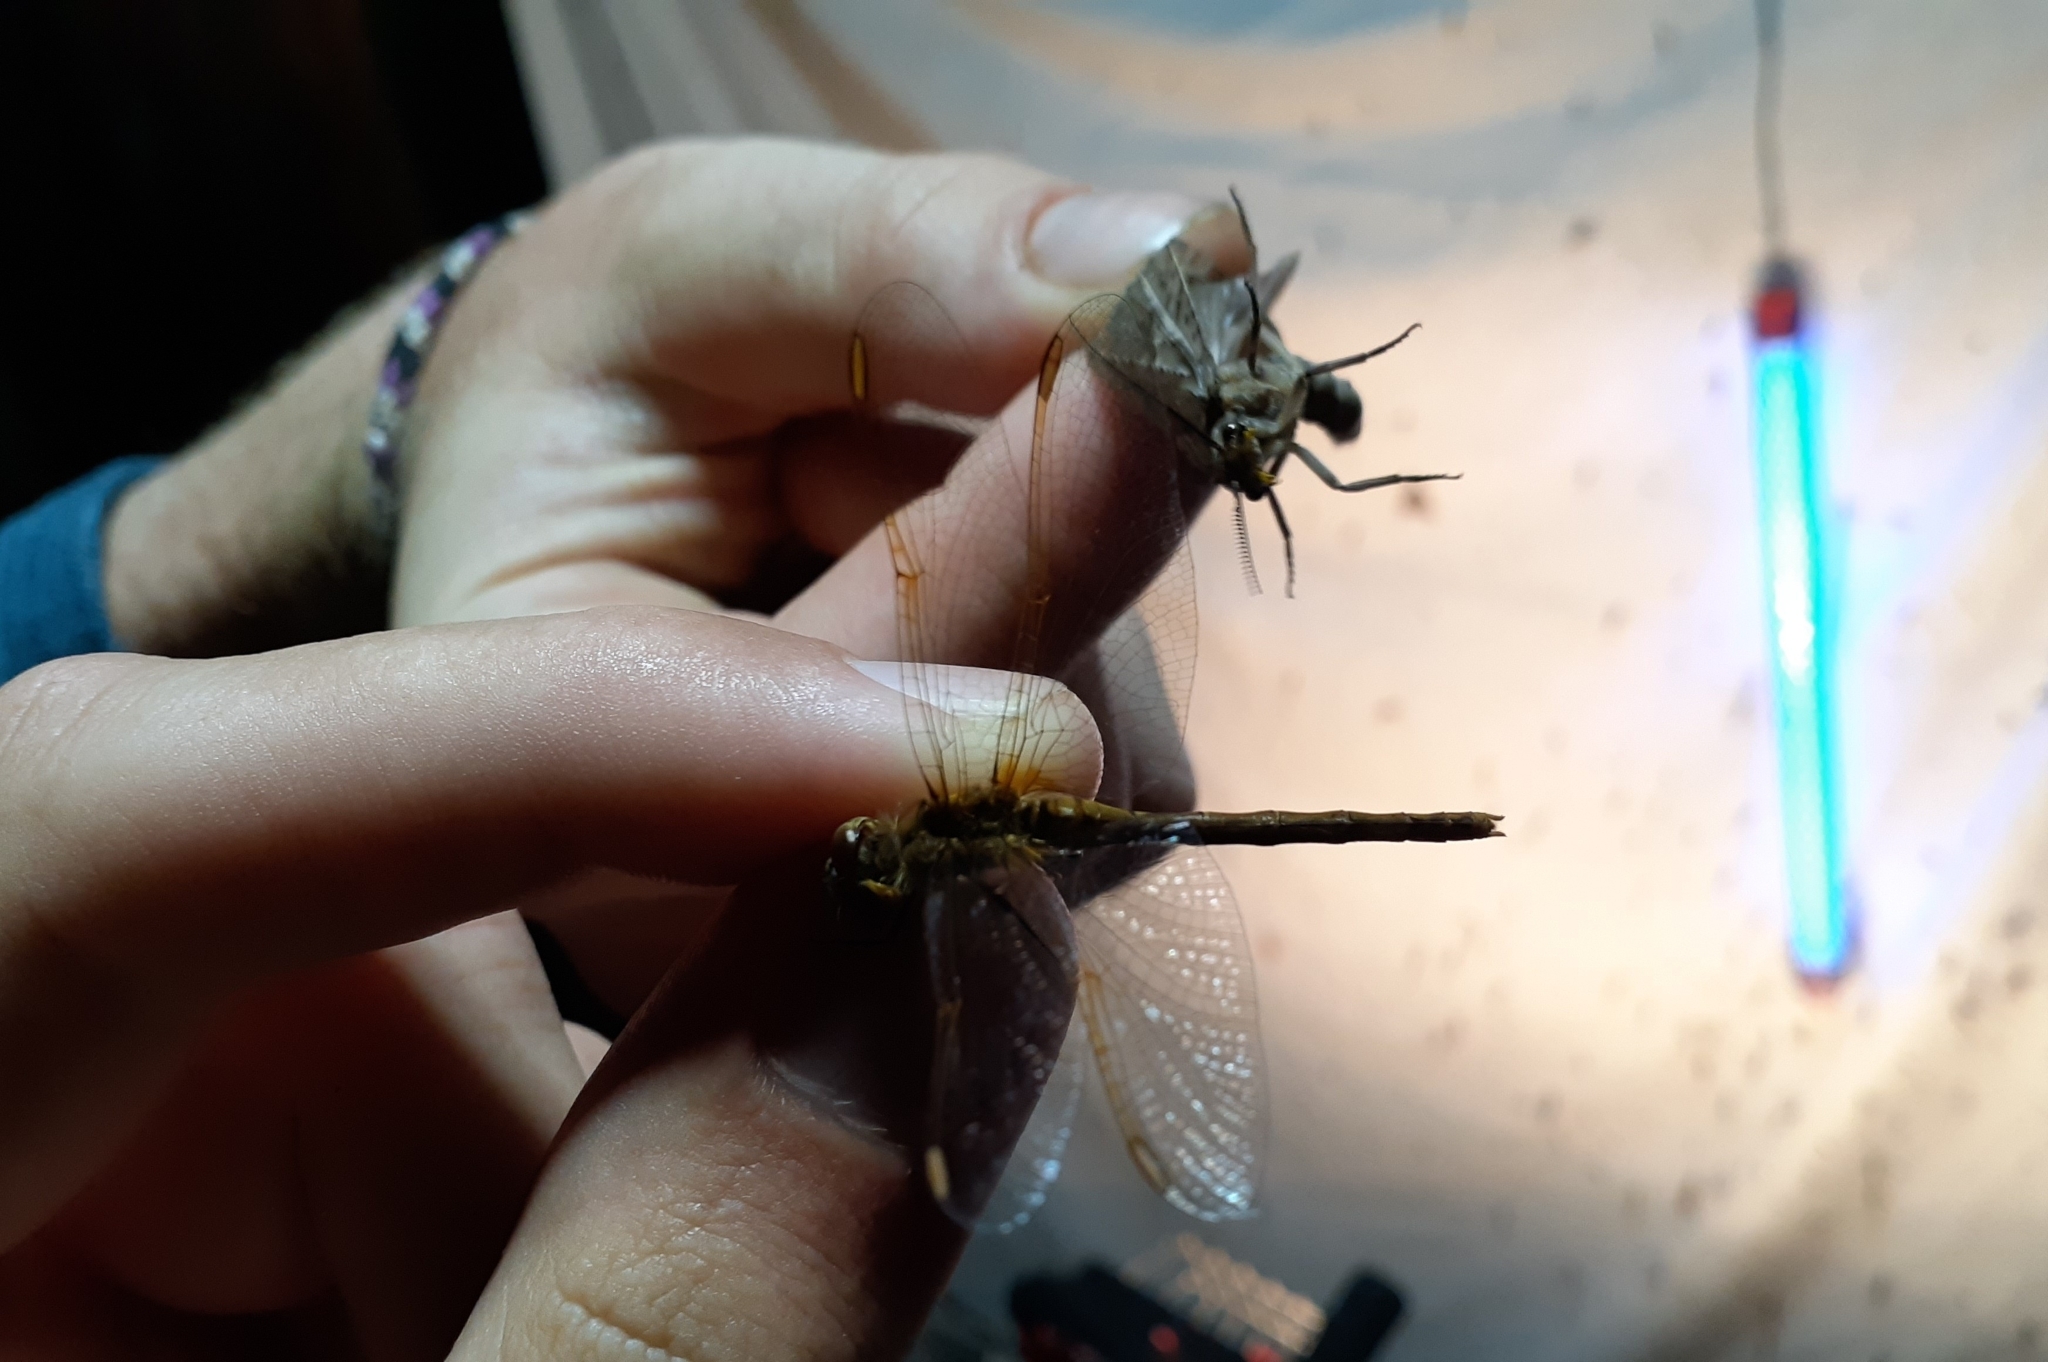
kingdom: Animalia
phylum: Arthropoda
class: Insecta
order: Odonata
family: Libellulidae
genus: Sympetrum
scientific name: Sympetrum costiferum
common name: Saffron-winged meadowhawk
